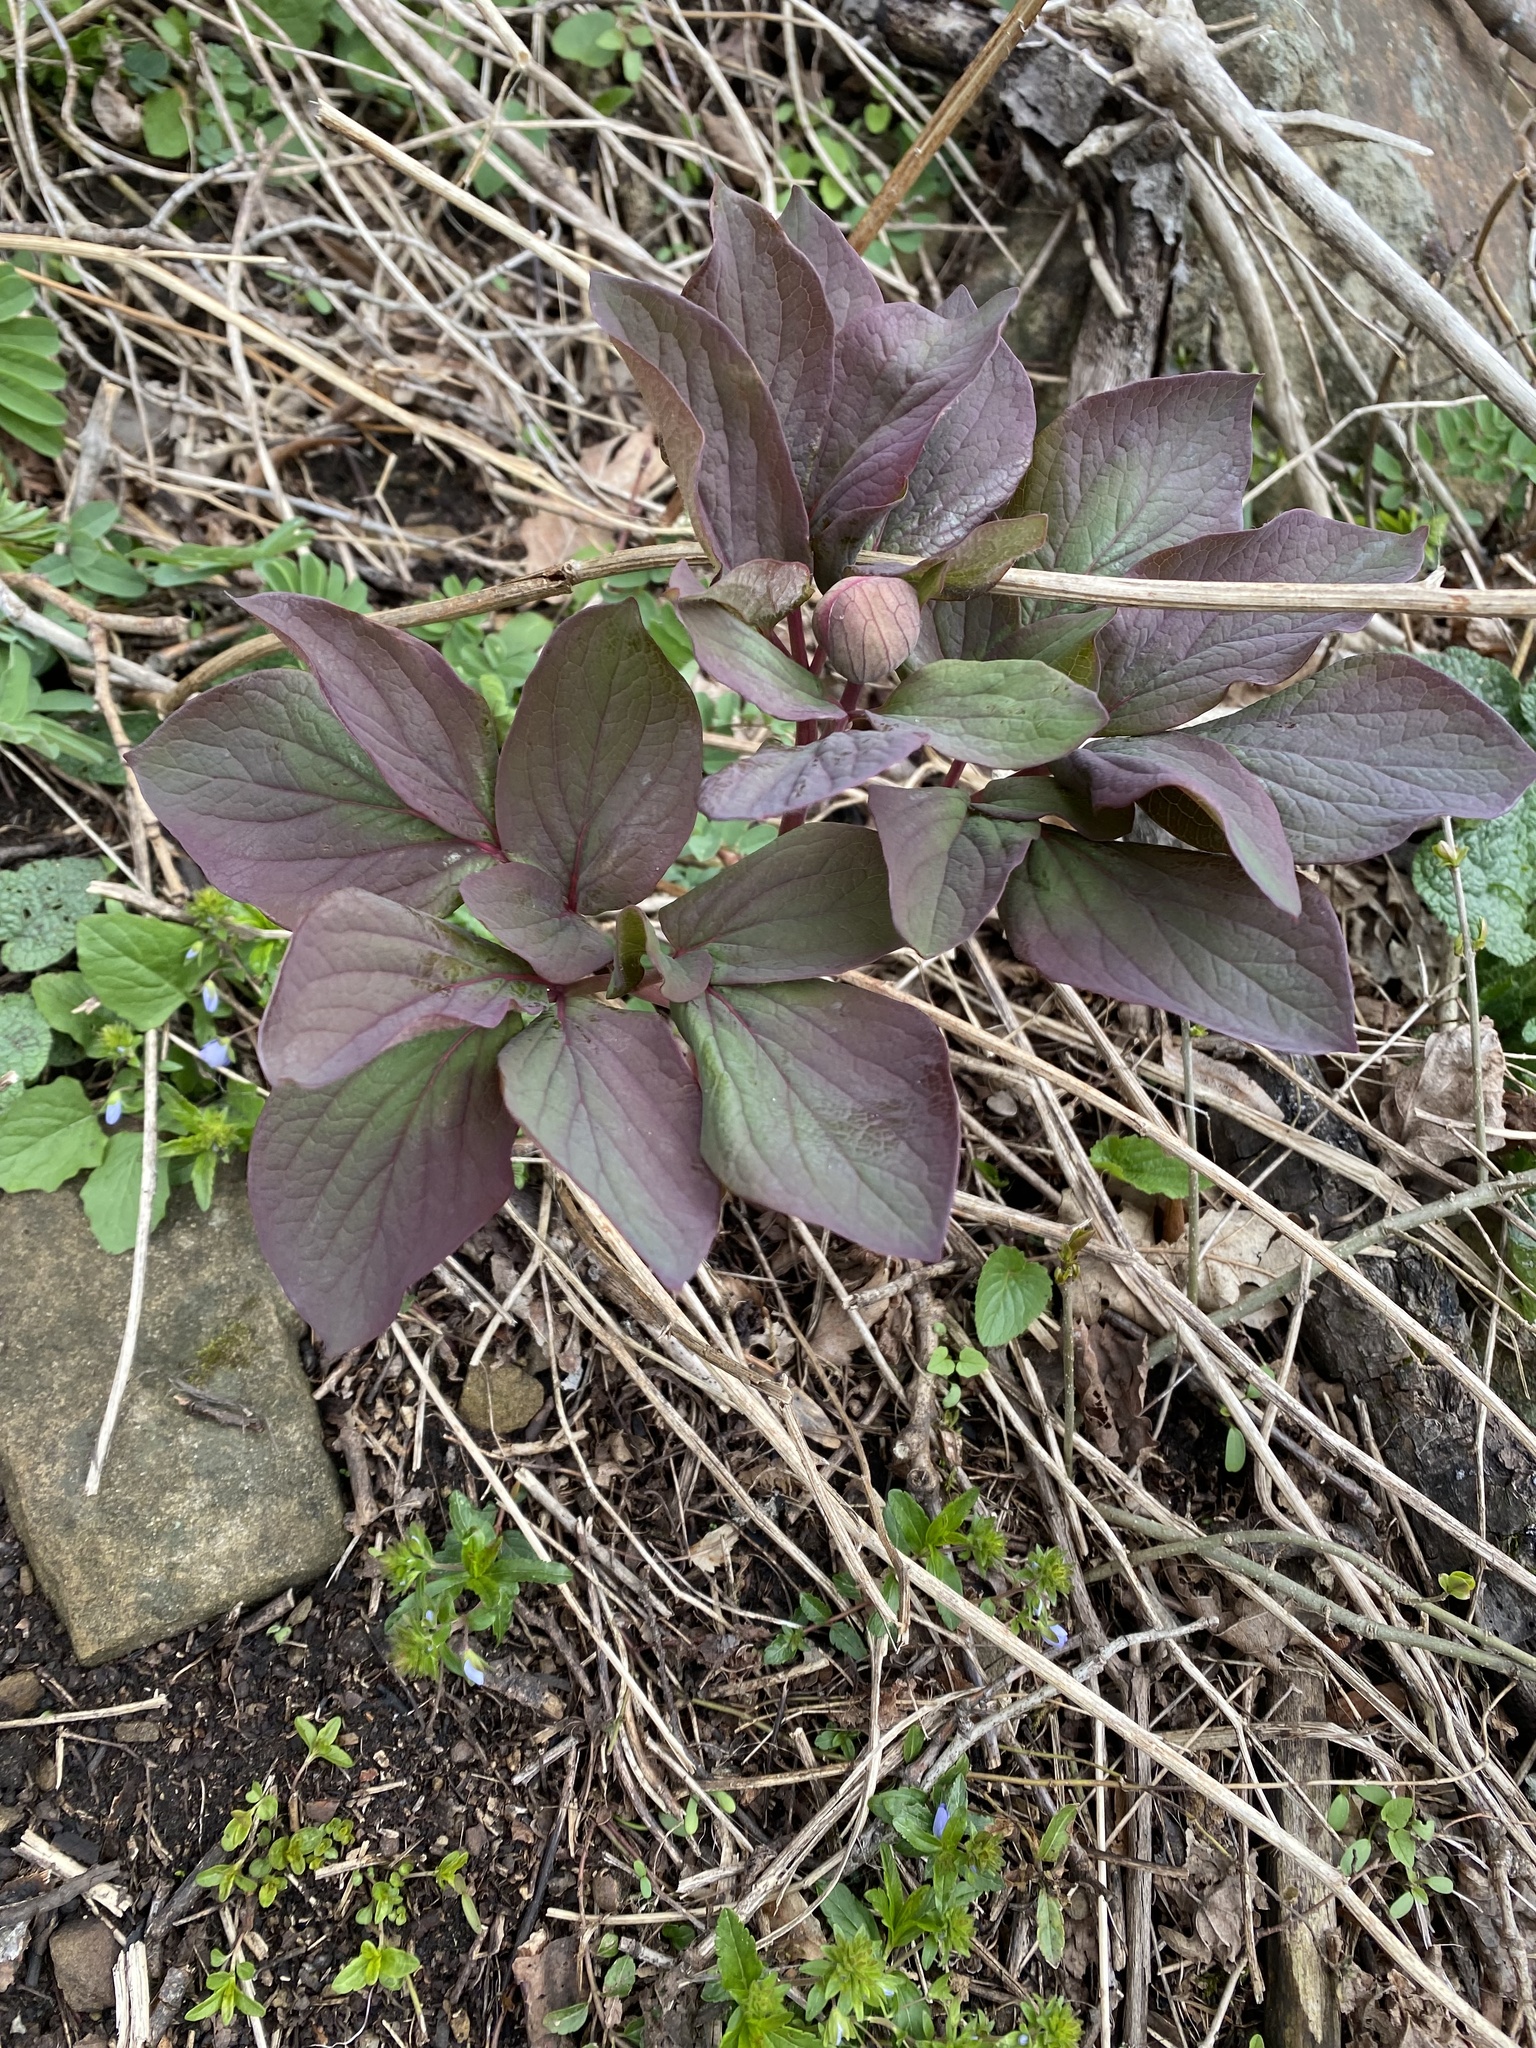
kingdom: Plantae
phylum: Tracheophyta
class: Magnoliopsida
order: Saxifragales
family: Paeoniaceae
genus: Paeonia
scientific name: Paeonia caucasica
